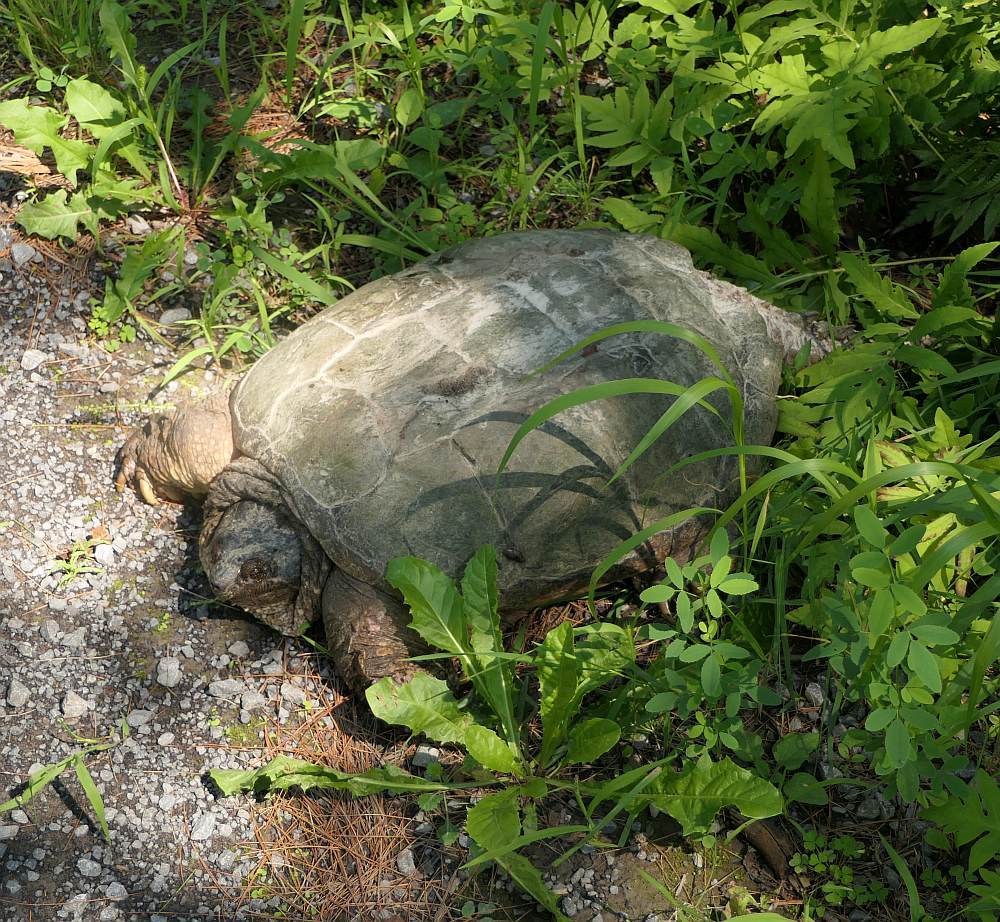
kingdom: Animalia
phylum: Chordata
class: Testudines
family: Chelydridae
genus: Chelydra
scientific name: Chelydra serpentina
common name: Common snapping turtle
